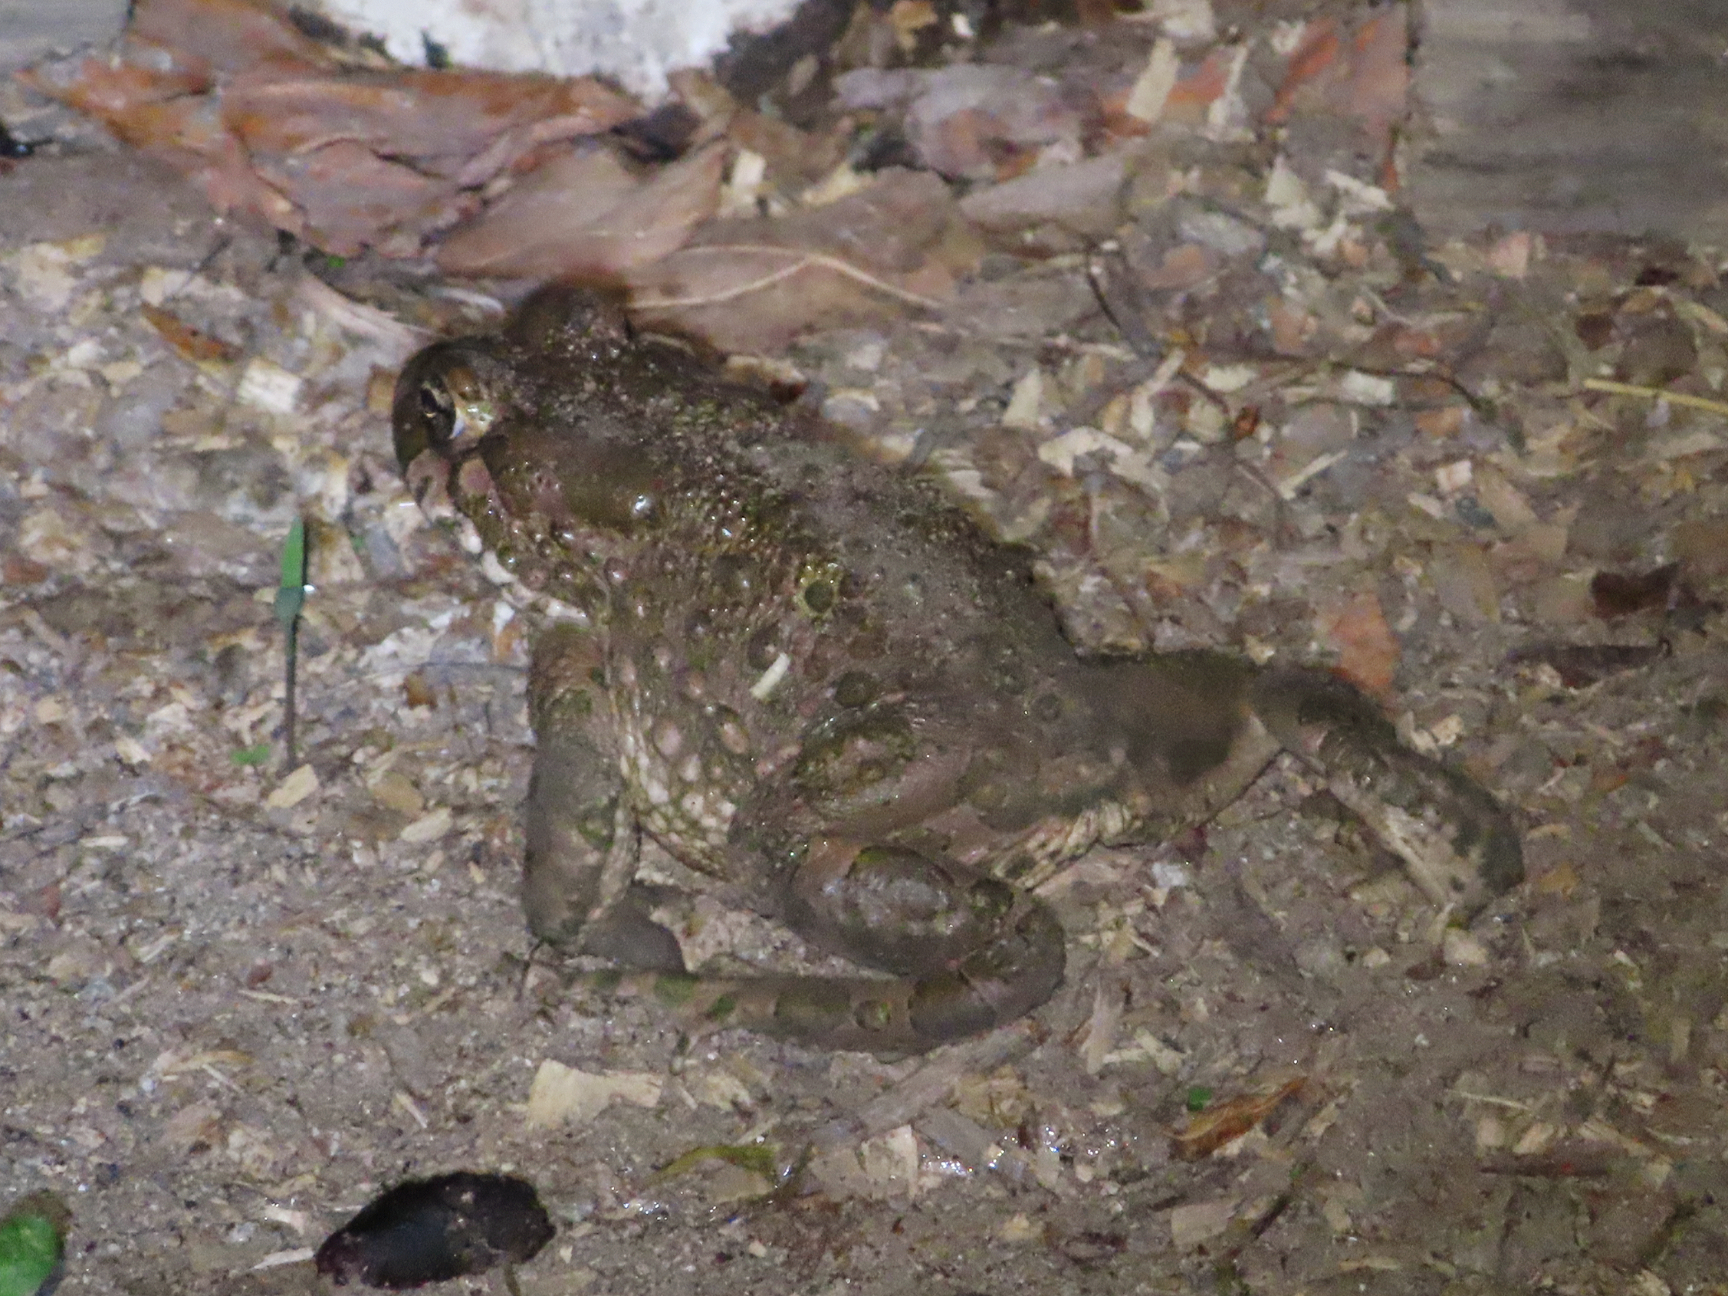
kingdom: Animalia
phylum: Chordata
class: Amphibia
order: Anura
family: Bufonidae
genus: Bufotes
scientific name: Bufotes viridis
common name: European green toad
